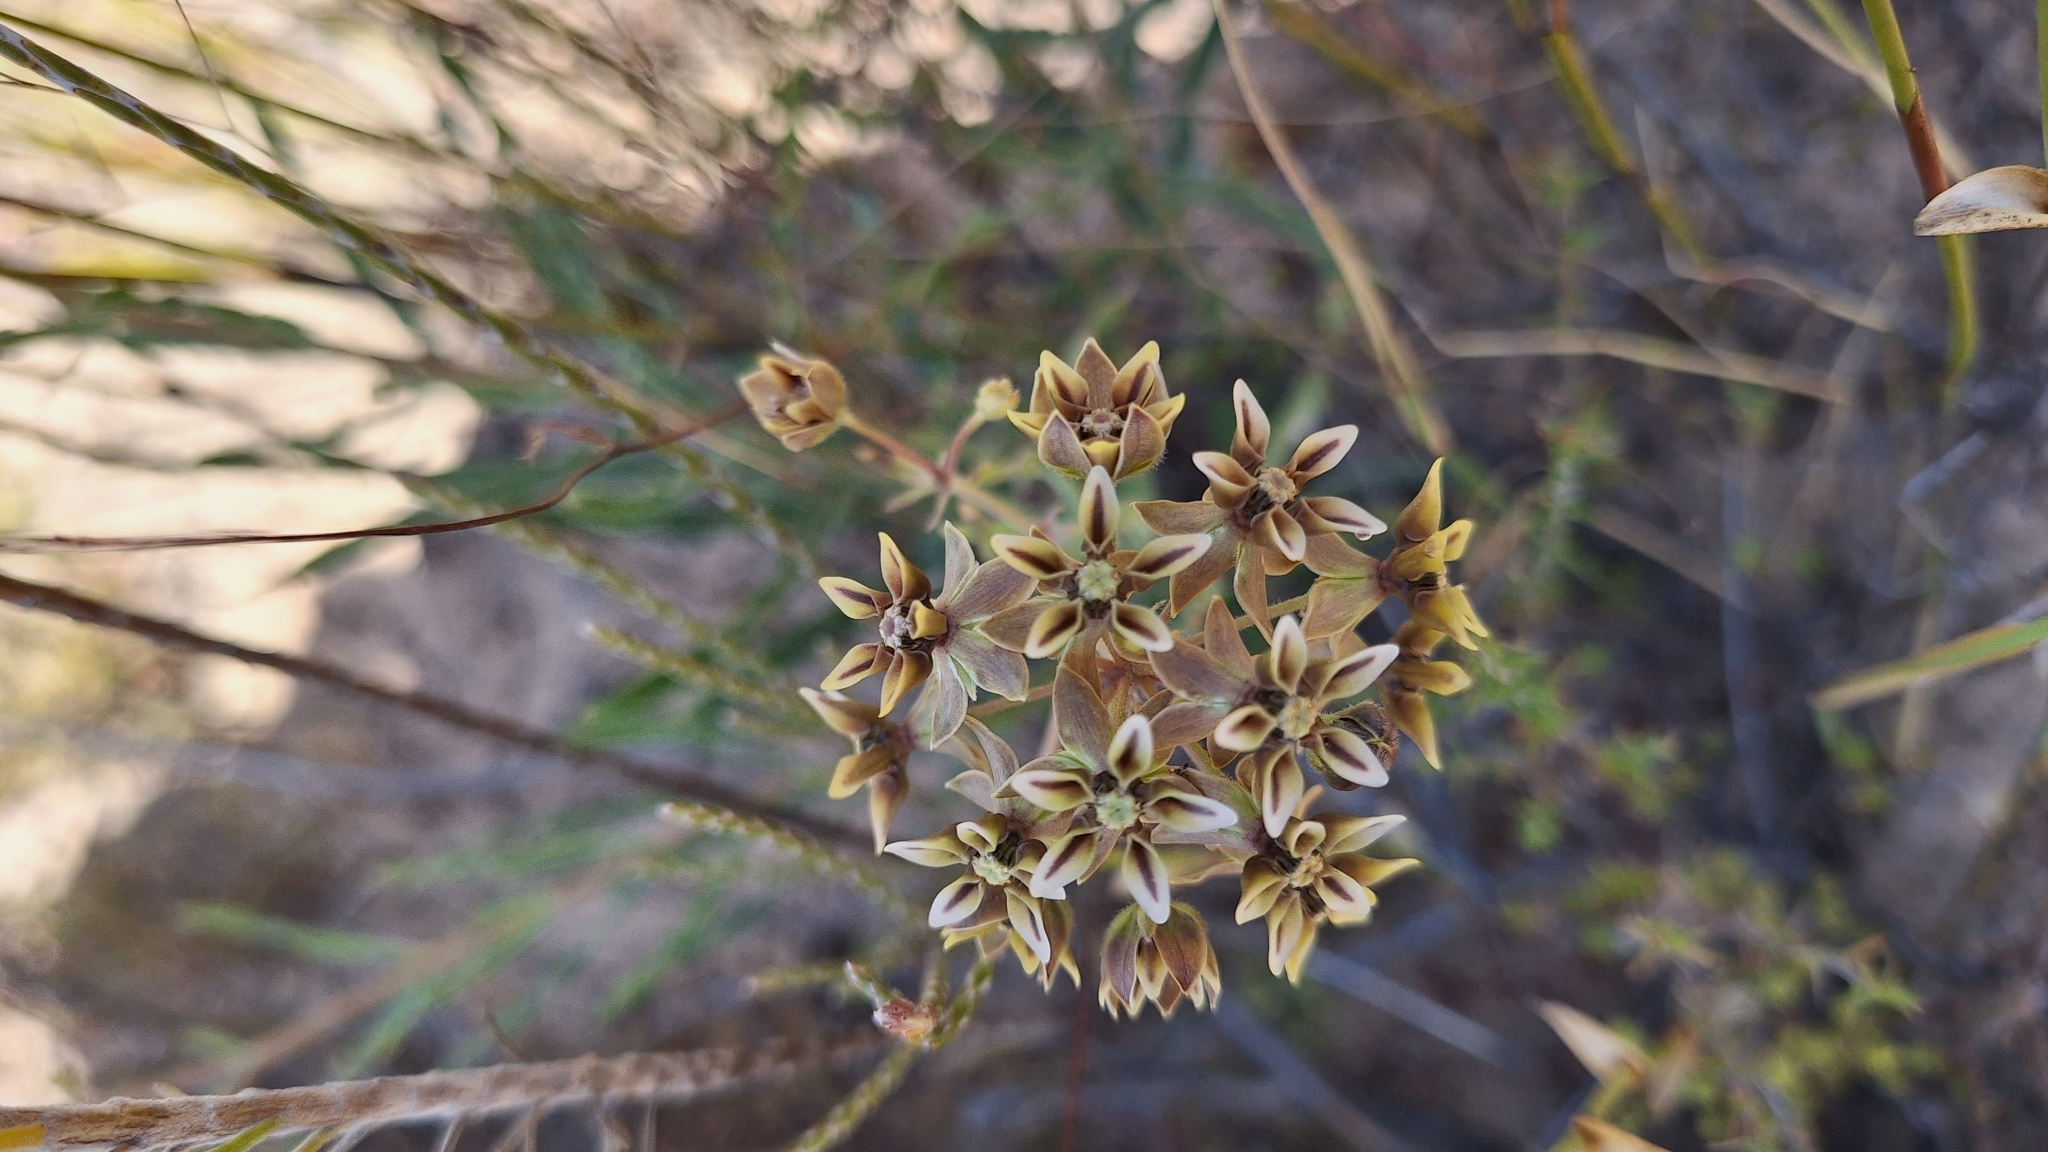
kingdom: Plantae
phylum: Tracheophyta
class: Magnoliopsida
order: Gentianales
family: Apocynaceae
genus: Asclepias
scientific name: Asclepias crispa
